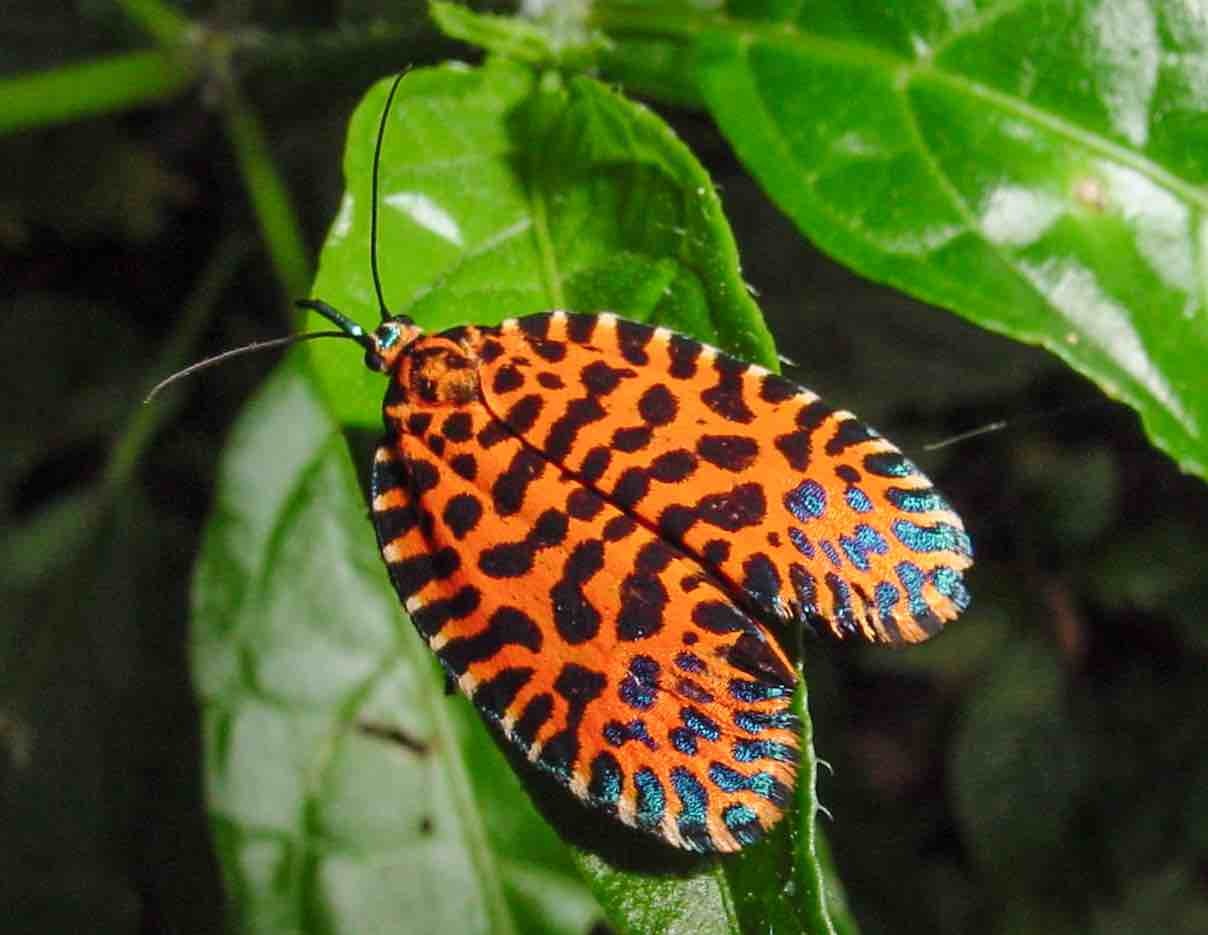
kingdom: Animalia
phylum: Arthropoda
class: Insecta
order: Lepidoptera
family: Tortricidae
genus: Pseudatteria
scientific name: Pseudatteria leopardina
